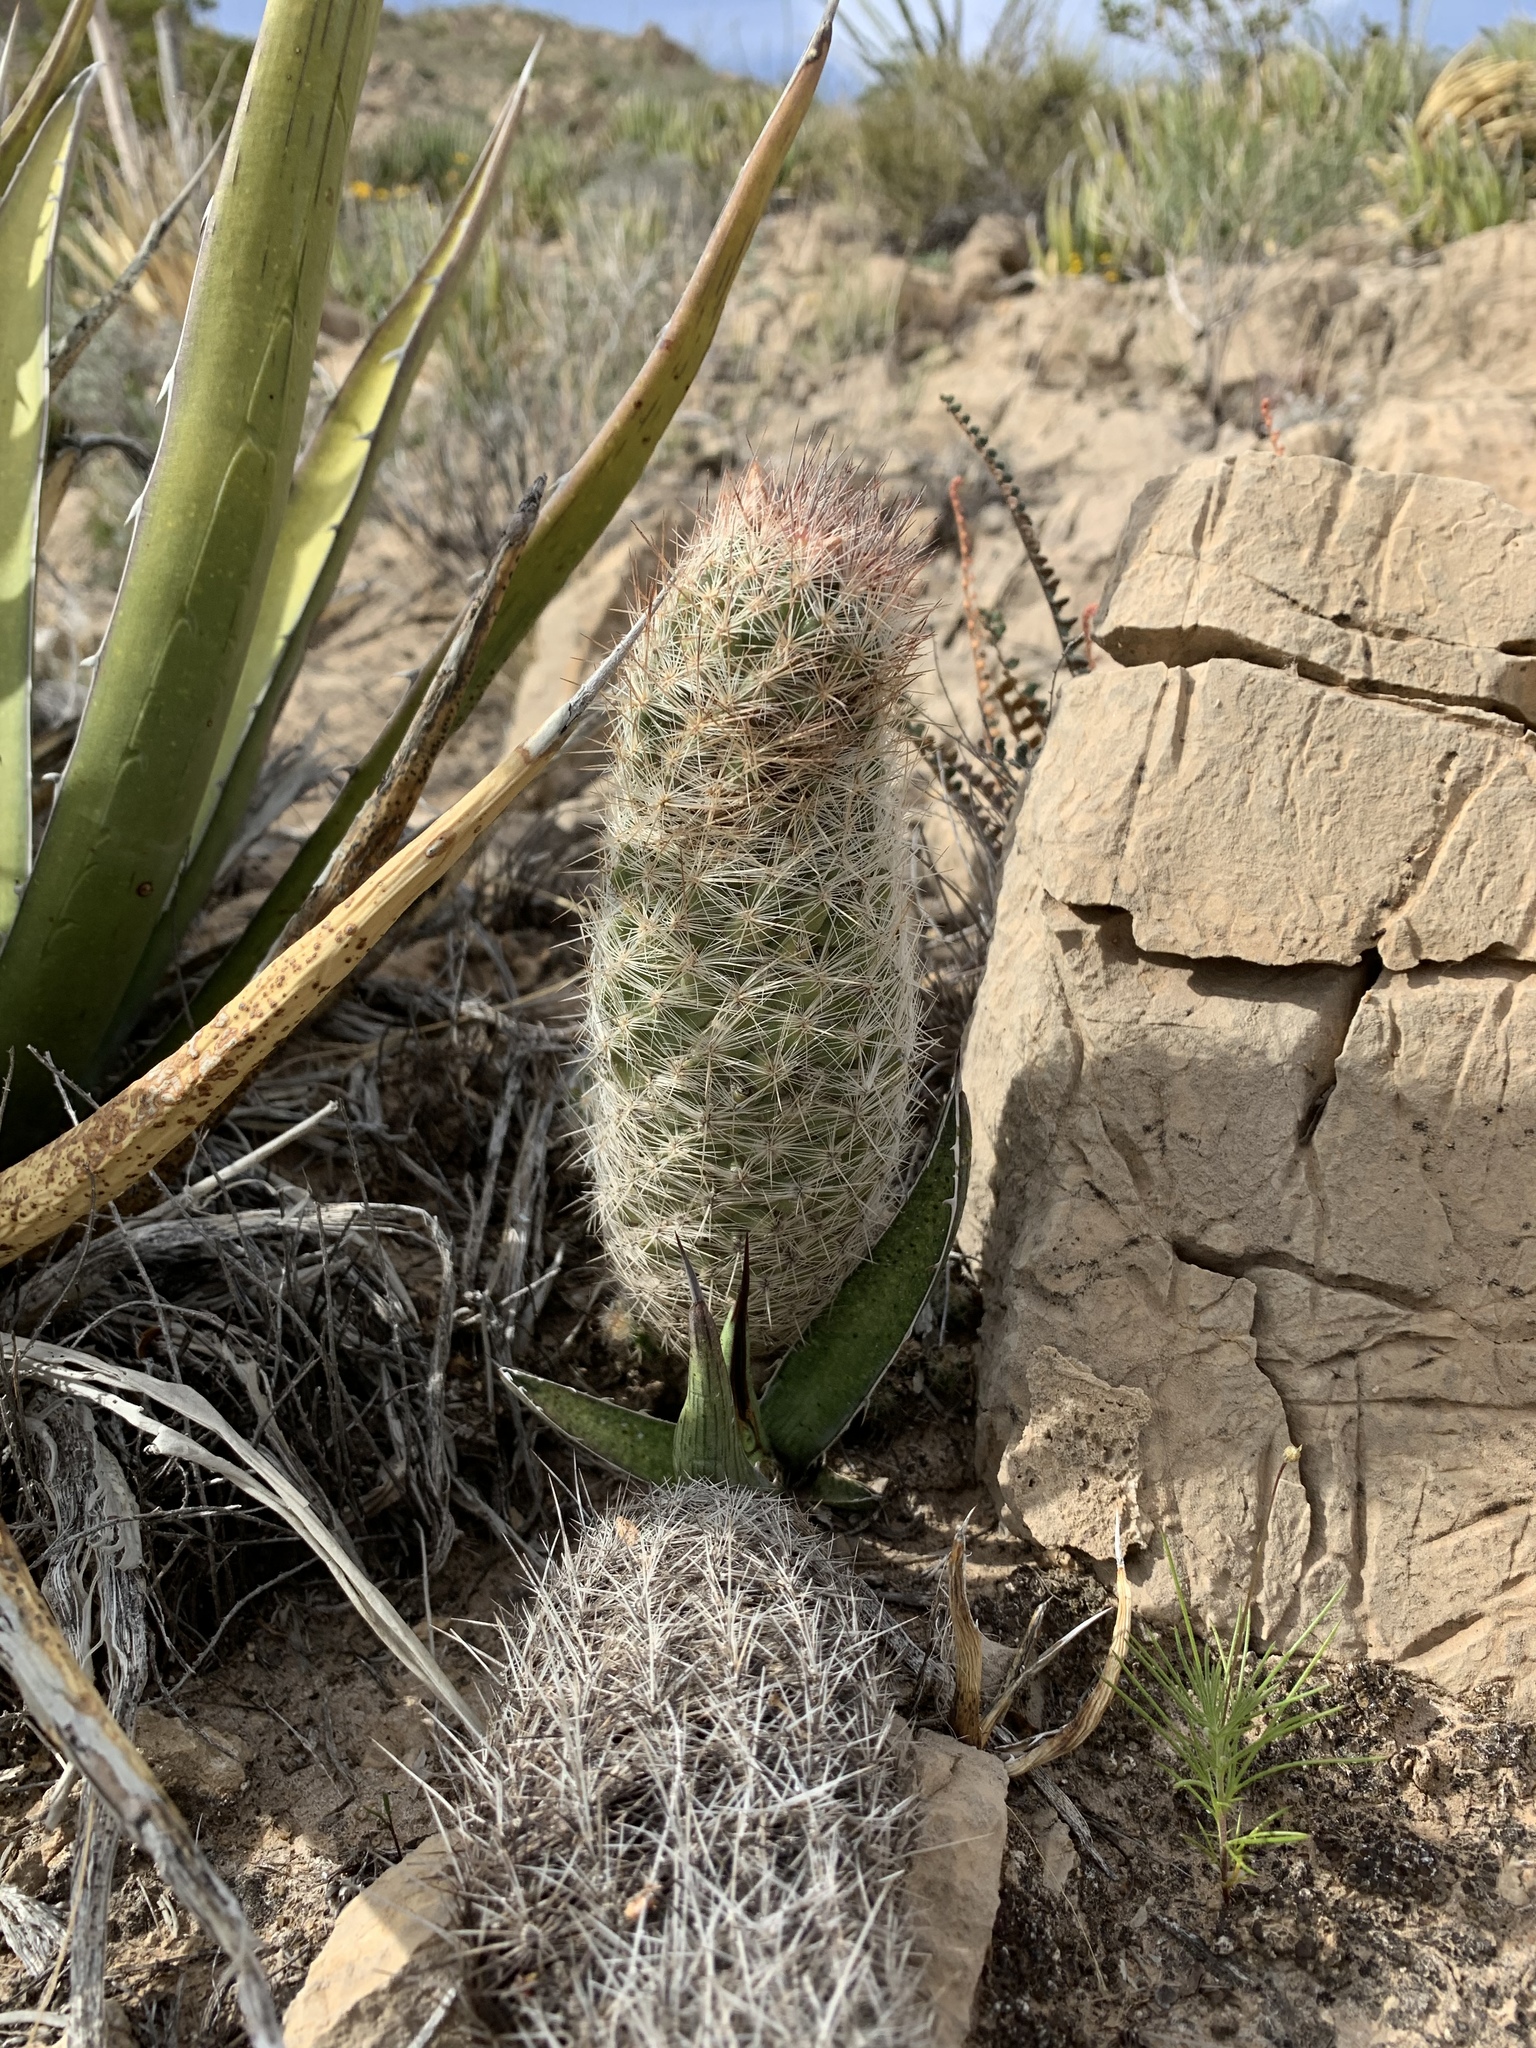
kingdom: Plantae
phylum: Tracheophyta
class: Magnoliopsida
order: Caryophyllales
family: Cactaceae
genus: Pelecyphora
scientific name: Pelecyphora tuberculosa
